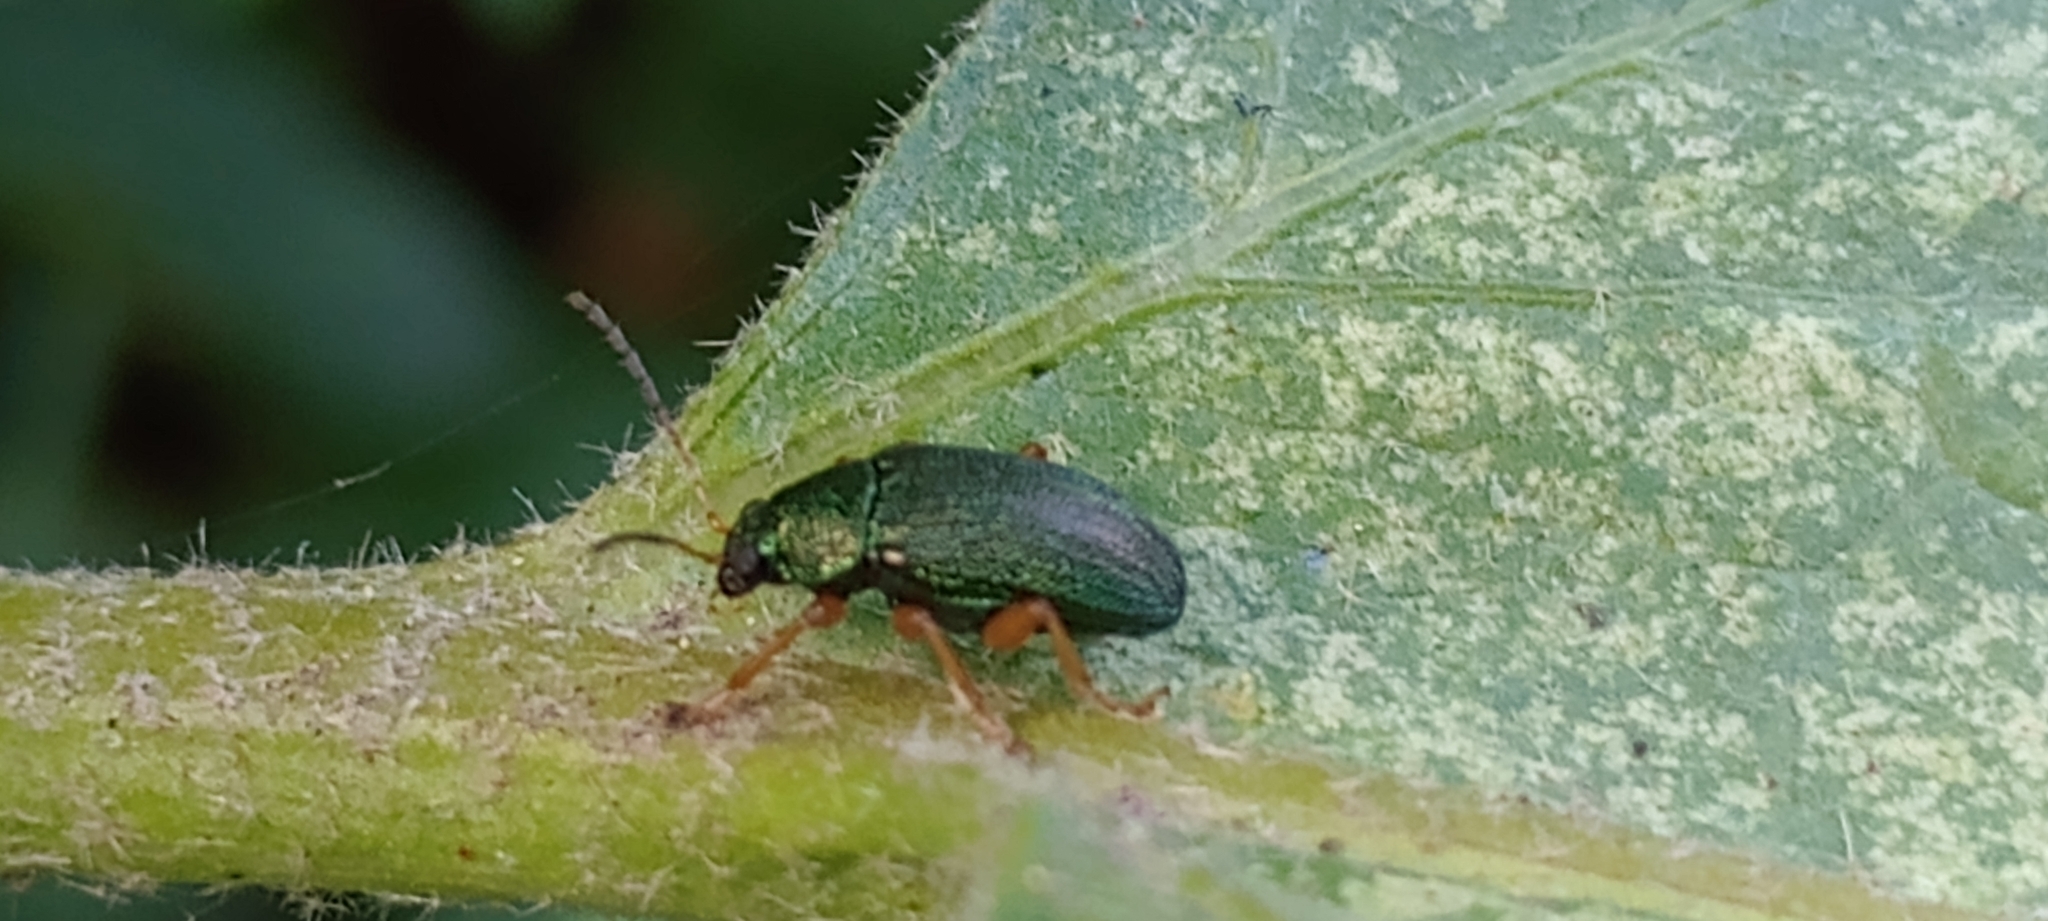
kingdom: Animalia
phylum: Arthropoda
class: Insecta
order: Coleoptera
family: Chrysomelidae
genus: Colaspis
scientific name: Colaspis
